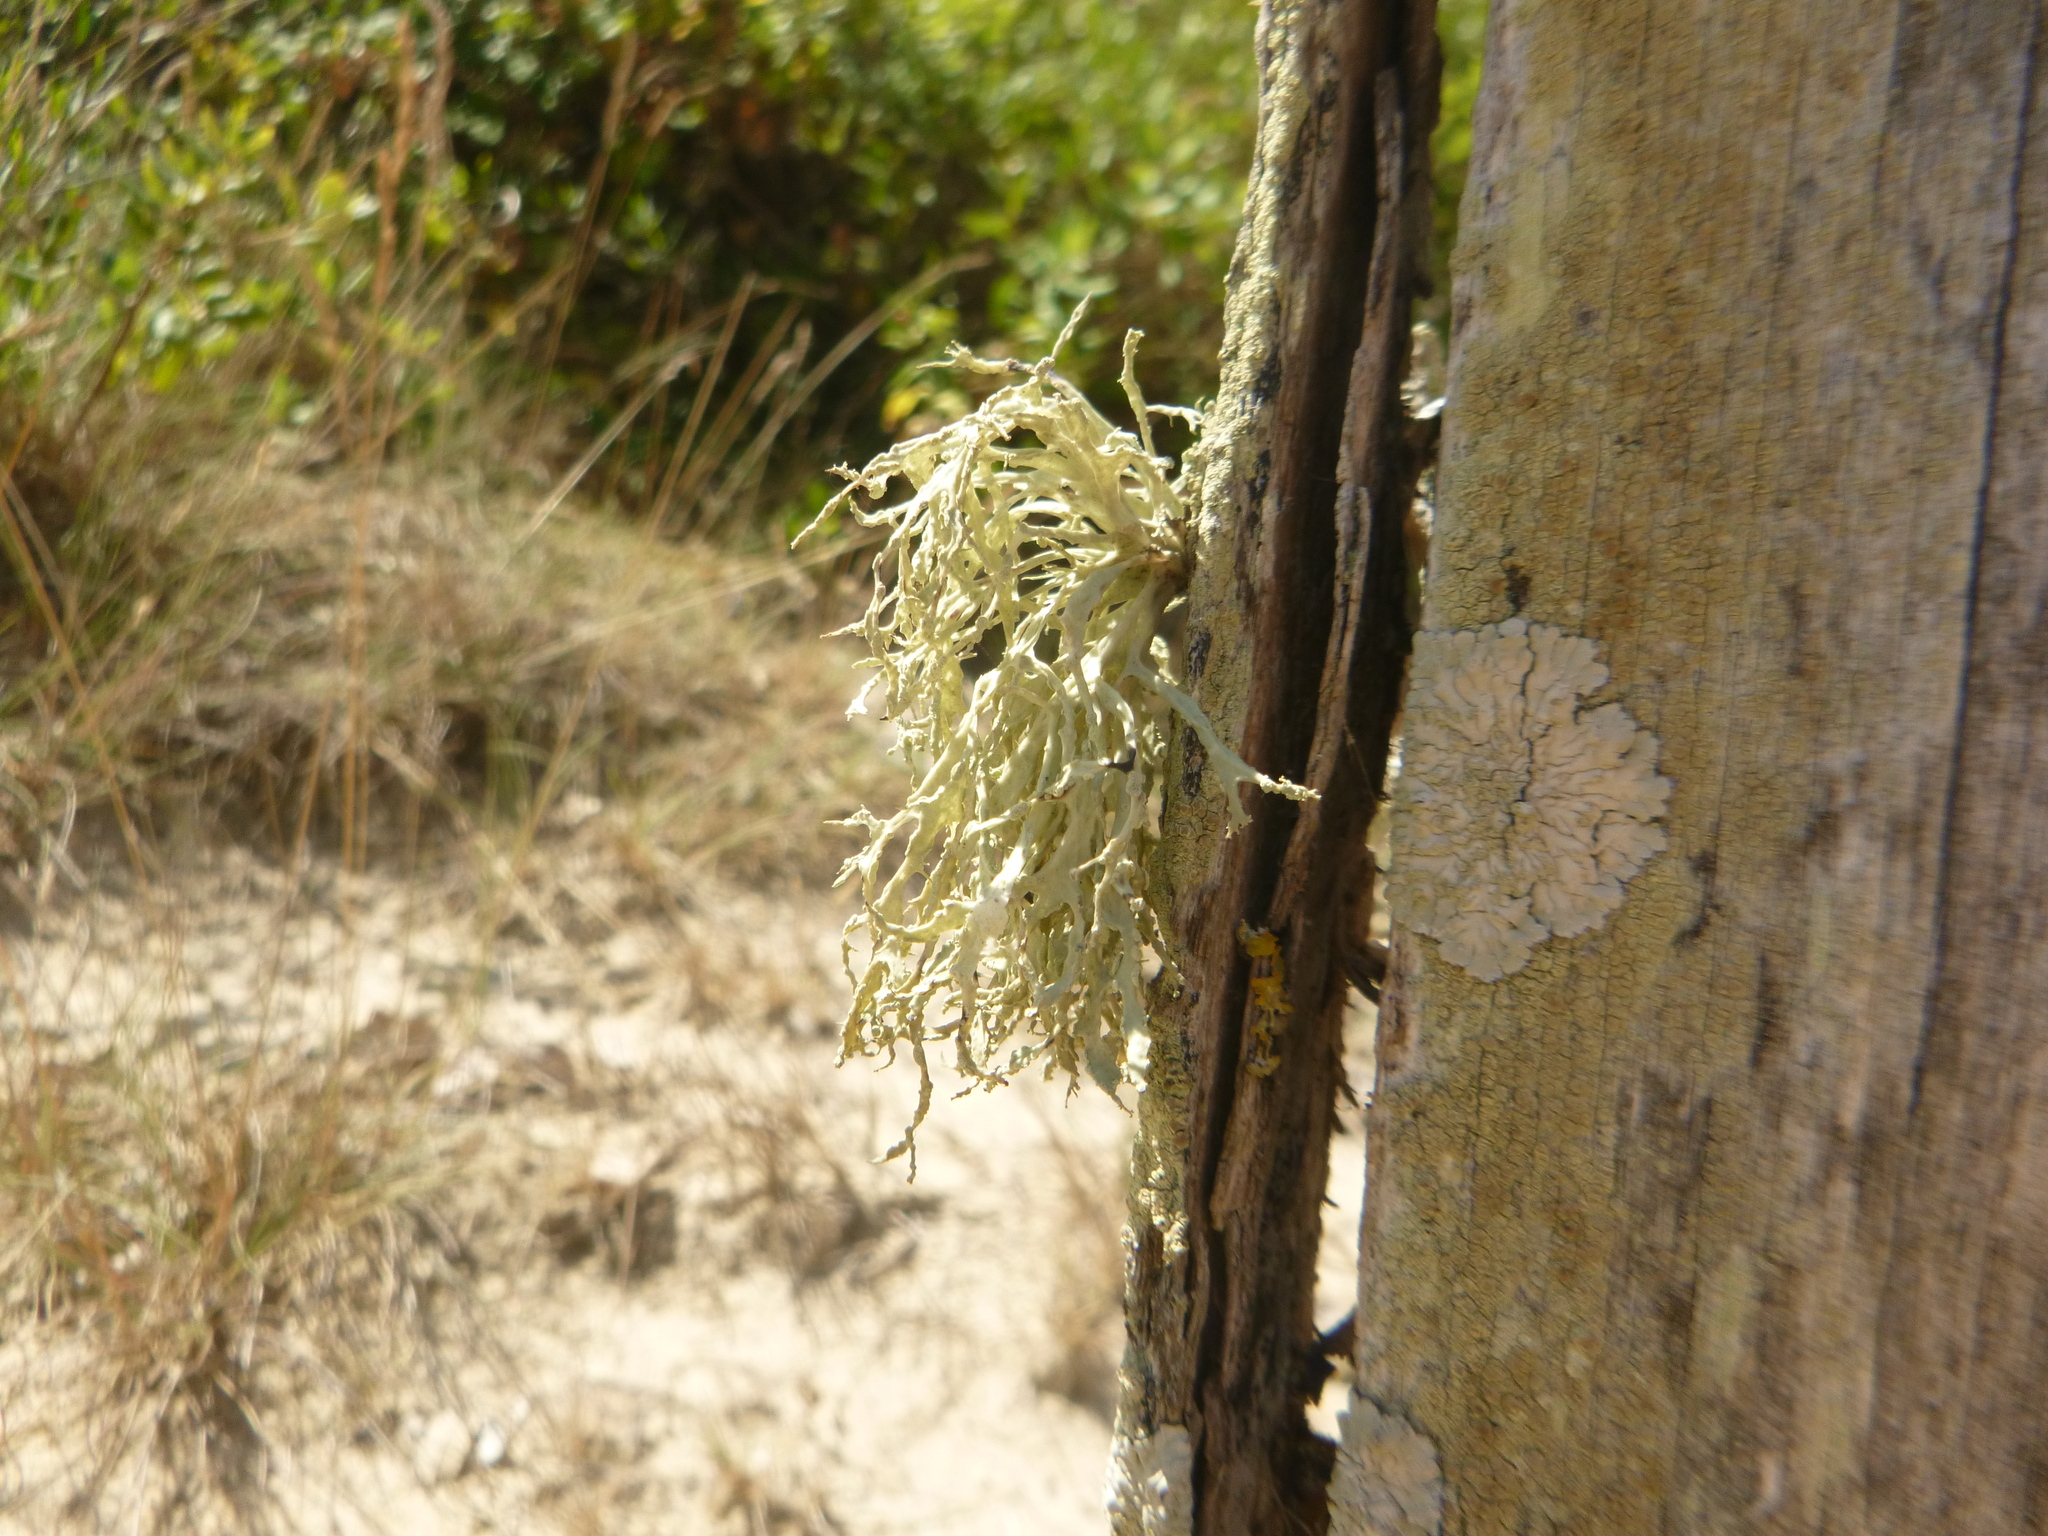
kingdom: Fungi
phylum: Ascomycota
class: Lecanoromycetes
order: Lecanorales
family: Ramalinaceae
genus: Ramalina
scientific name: Ramalina farinacea
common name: Farinose cartilage lichen
